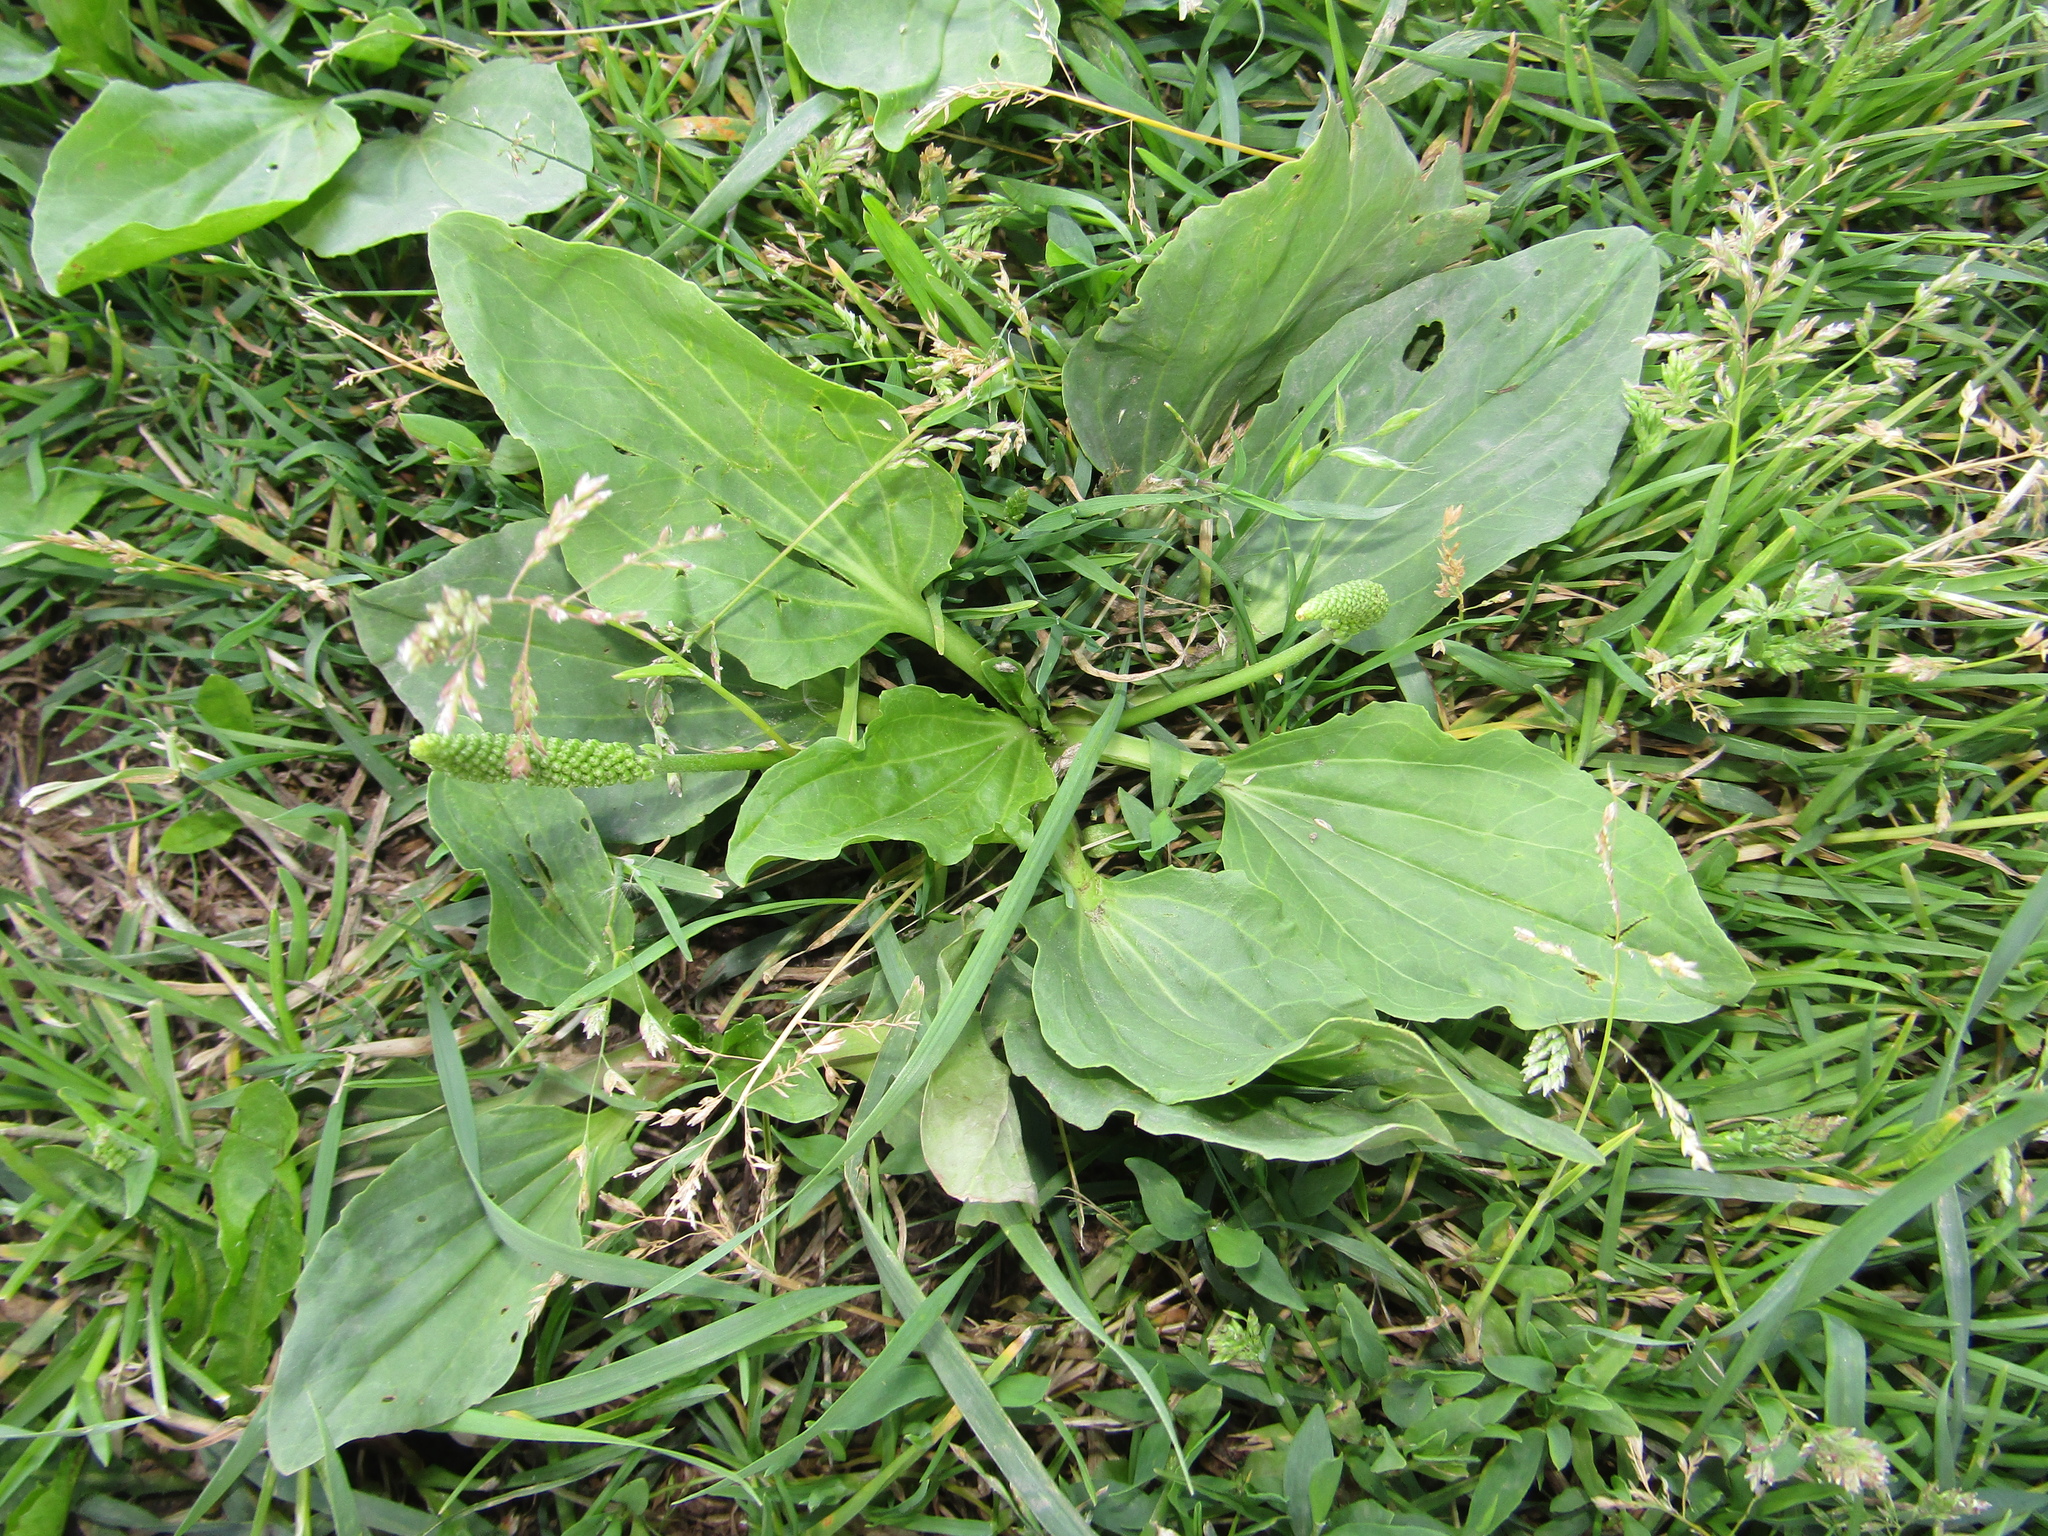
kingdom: Plantae
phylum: Tracheophyta
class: Magnoliopsida
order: Lamiales
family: Plantaginaceae
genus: Plantago
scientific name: Plantago major
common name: Common plantain
